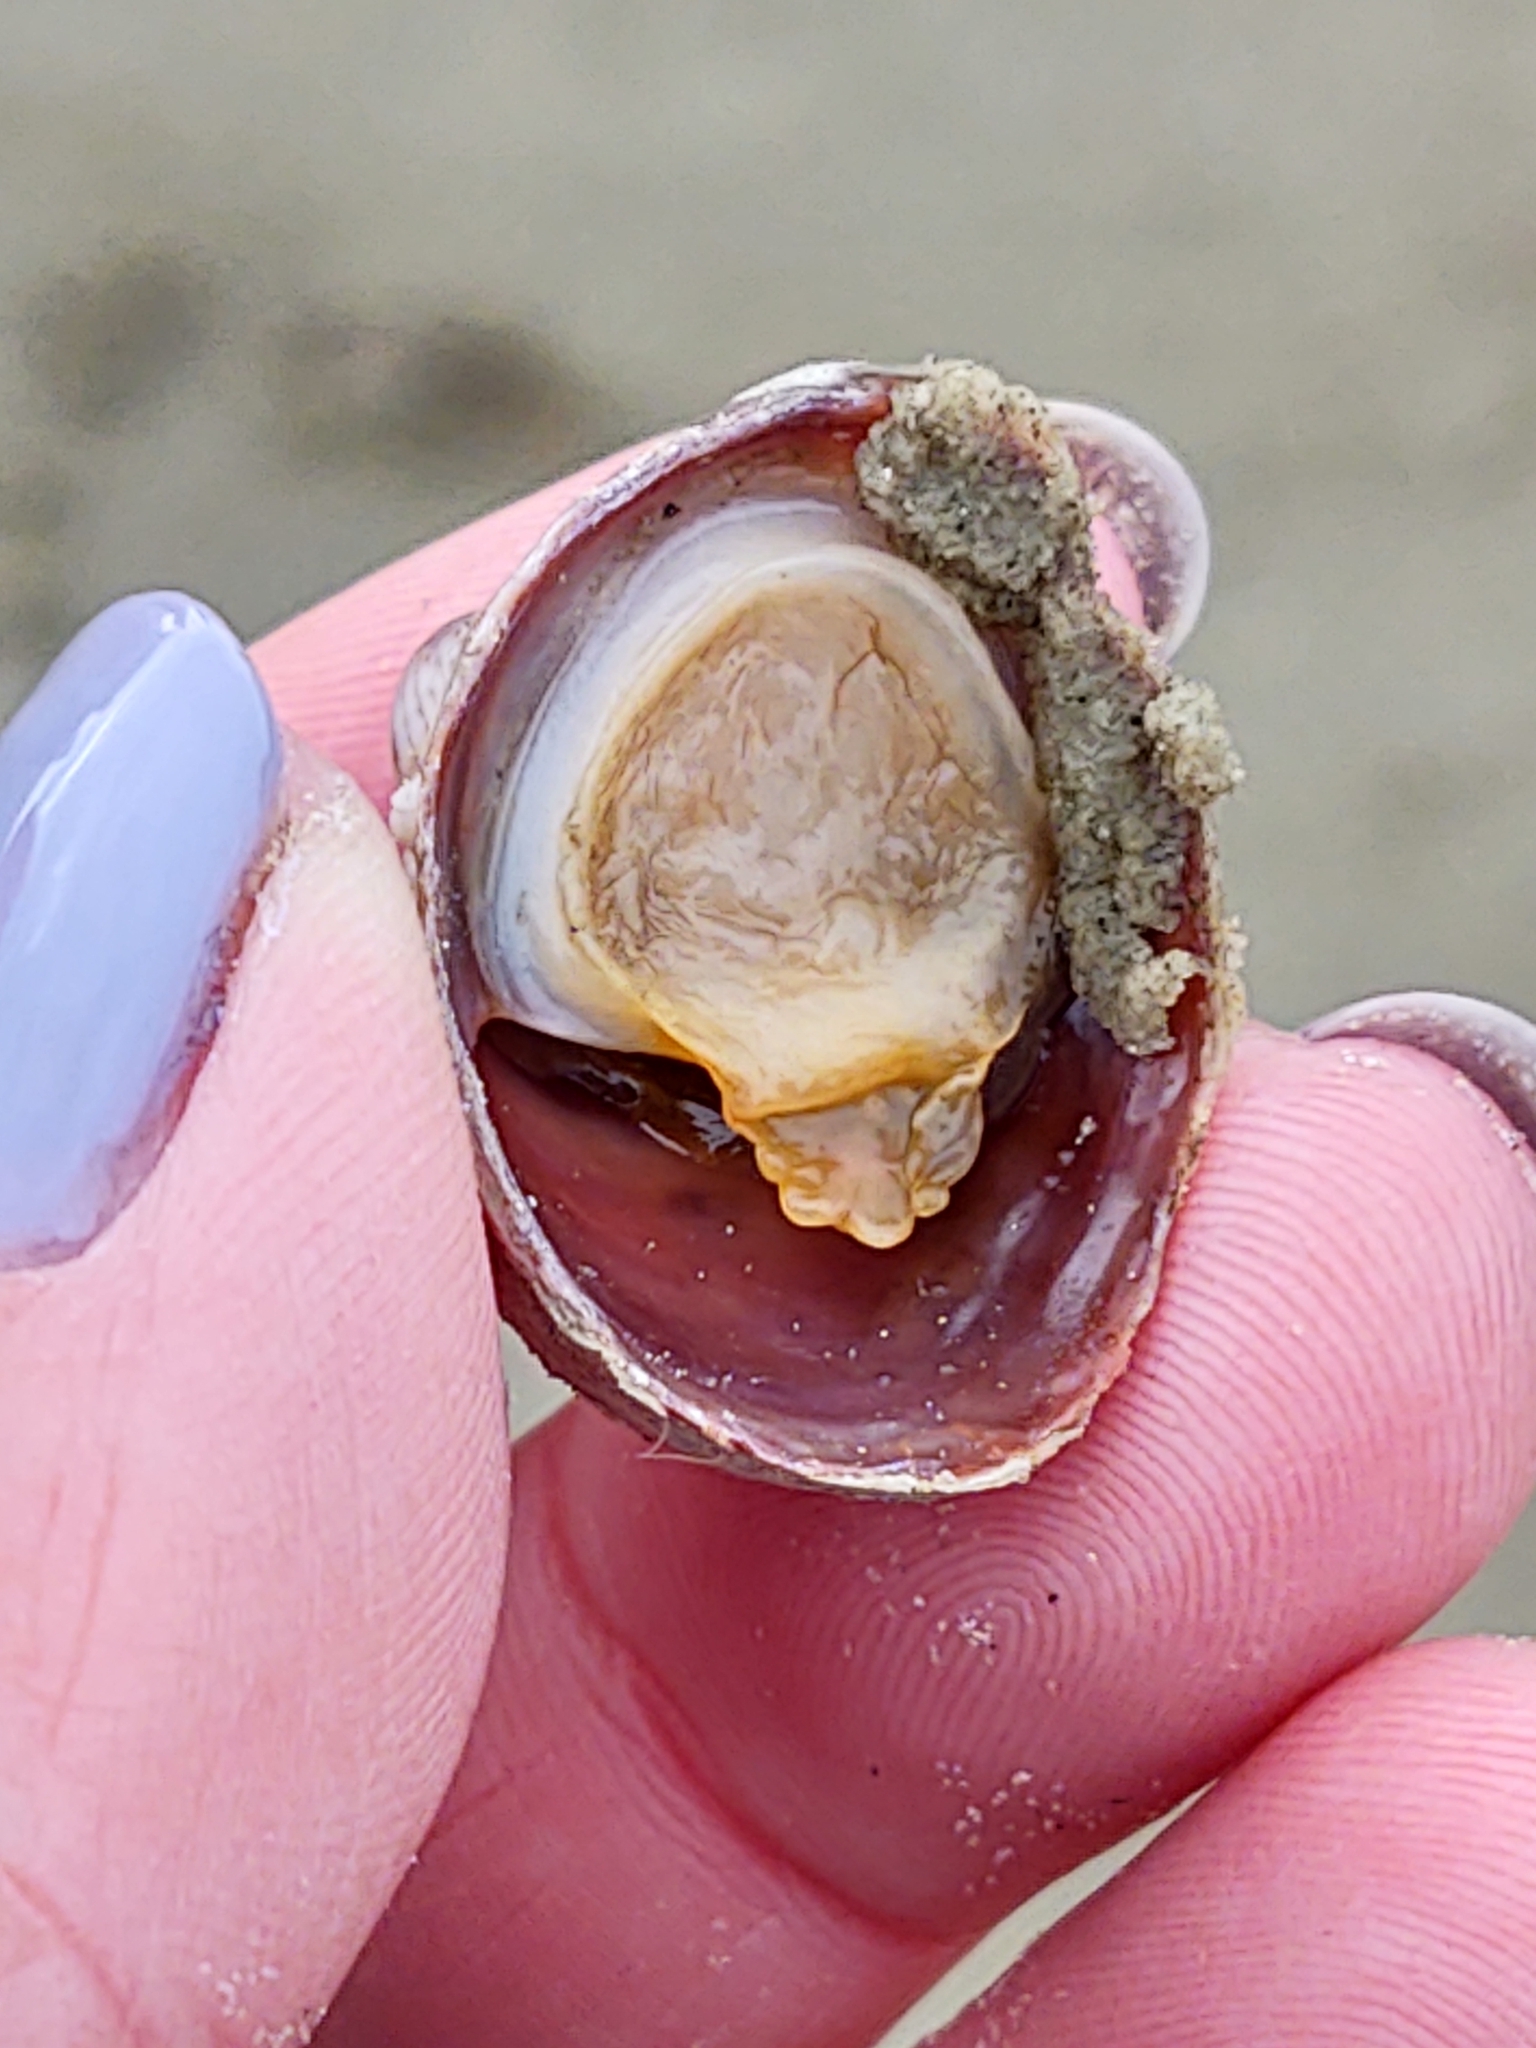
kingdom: Animalia
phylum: Mollusca
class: Gastropoda
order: Littorinimorpha
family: Calyptraeidae
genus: Crepidula
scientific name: Crepidula fornicata
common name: Slipper limpet
